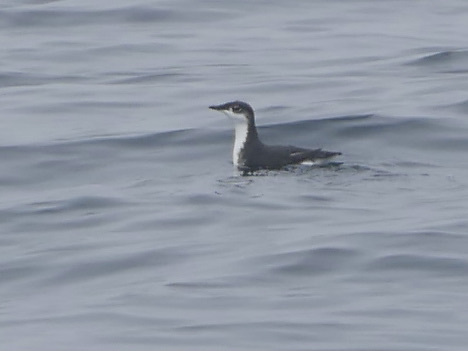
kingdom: Animalia
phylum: Chordata
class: Aves
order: Charadriiformes
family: Alcidae
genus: Synthliboramphus
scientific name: Synthliboramphus scrippsi
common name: Scripps's murrelet
